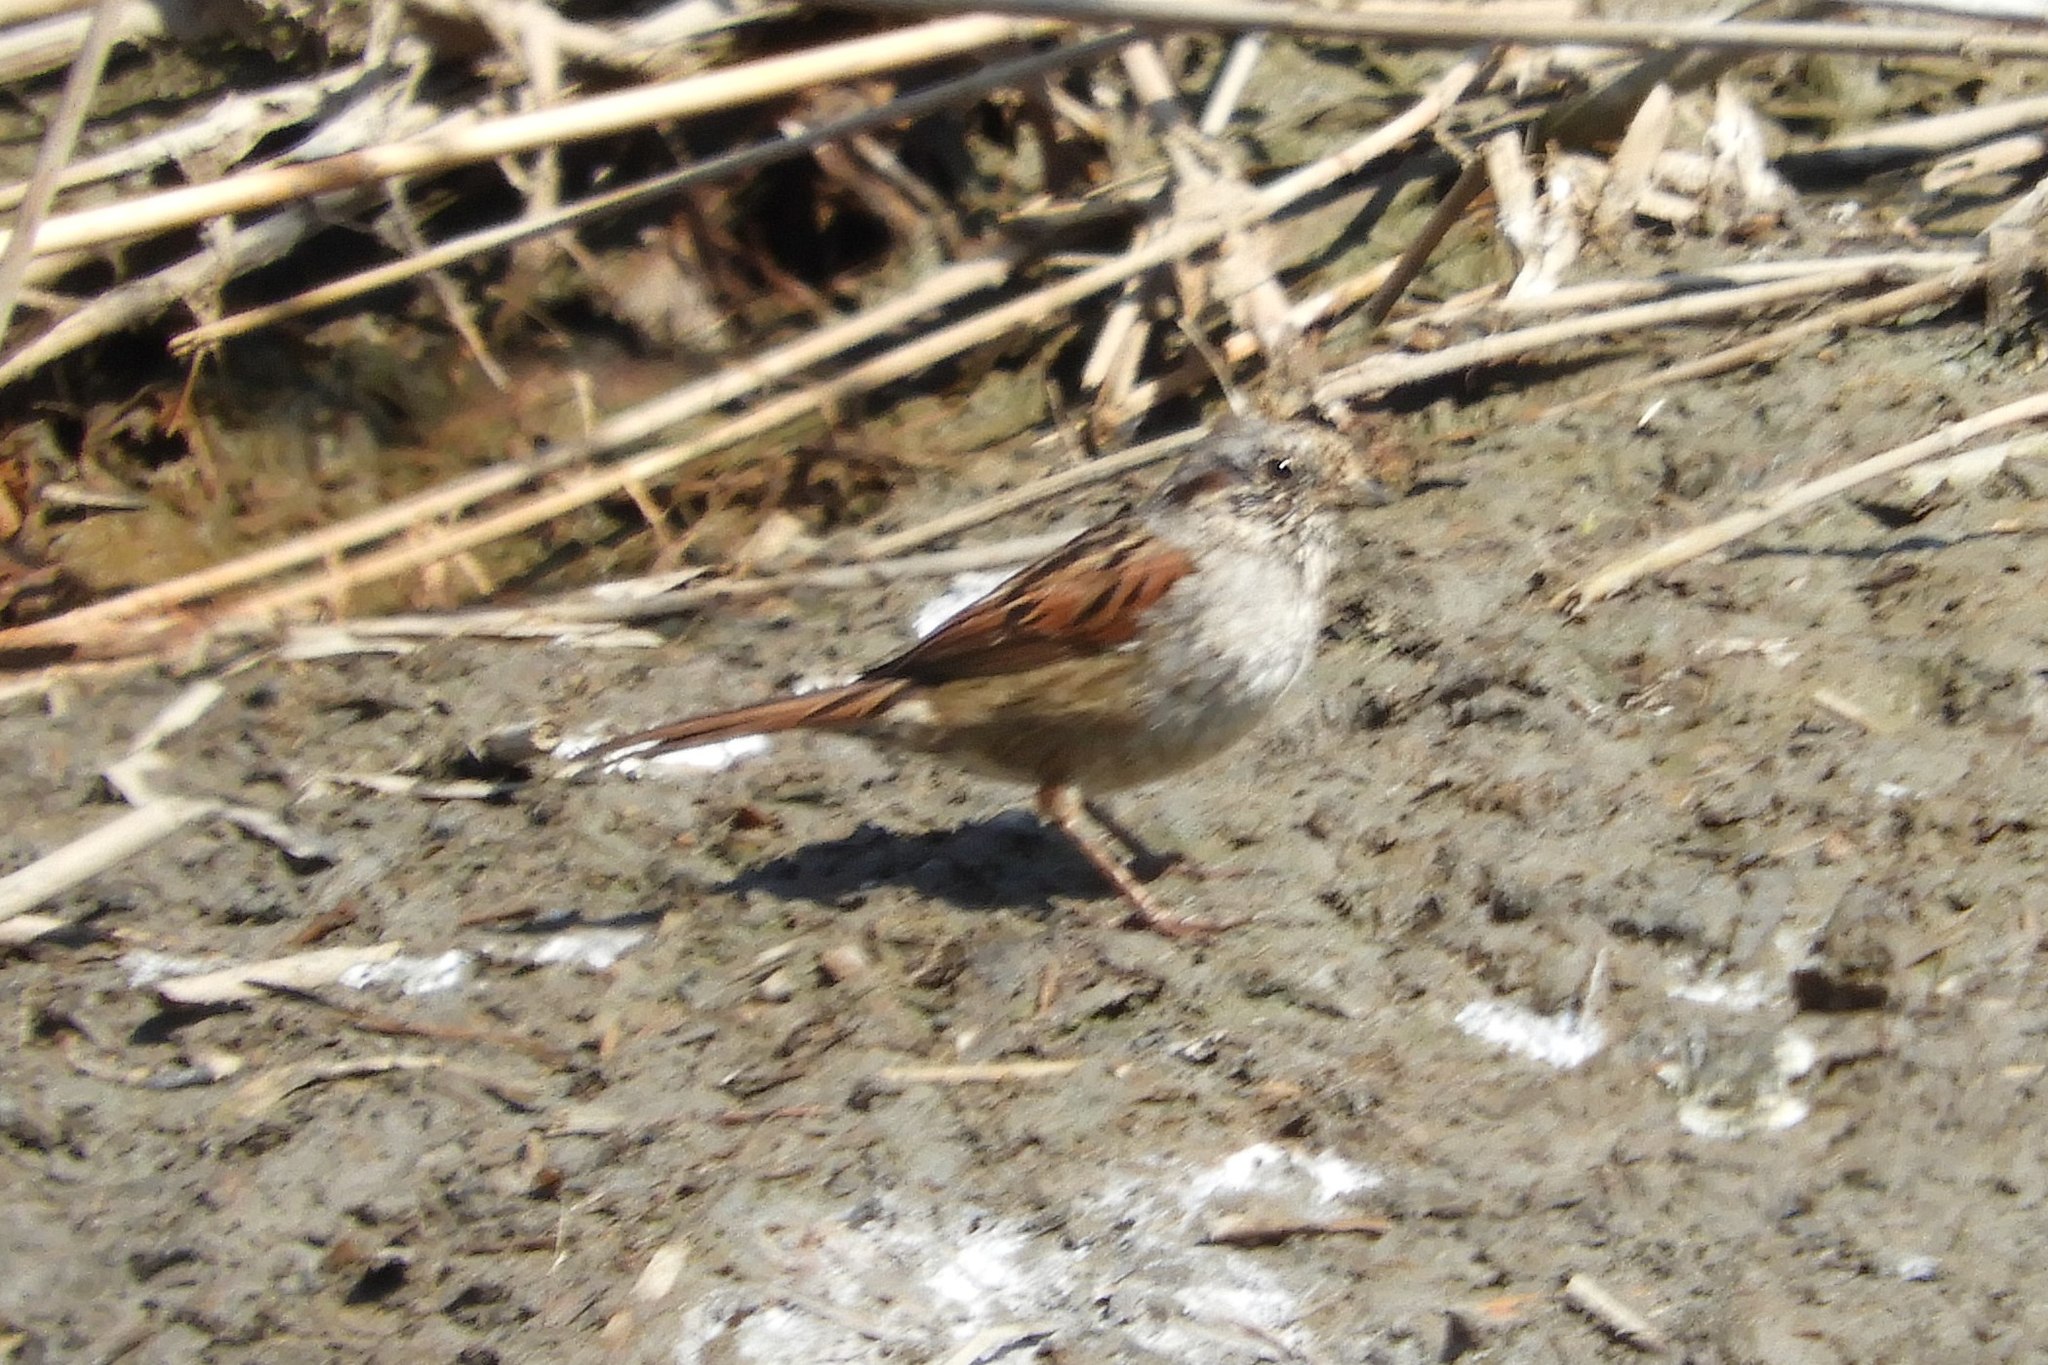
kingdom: Animalia
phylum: Chordata
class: Aves
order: Passeriformes
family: Passerellidae
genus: Melospiza
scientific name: Melospiza georgiana
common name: Swamp sparrow
